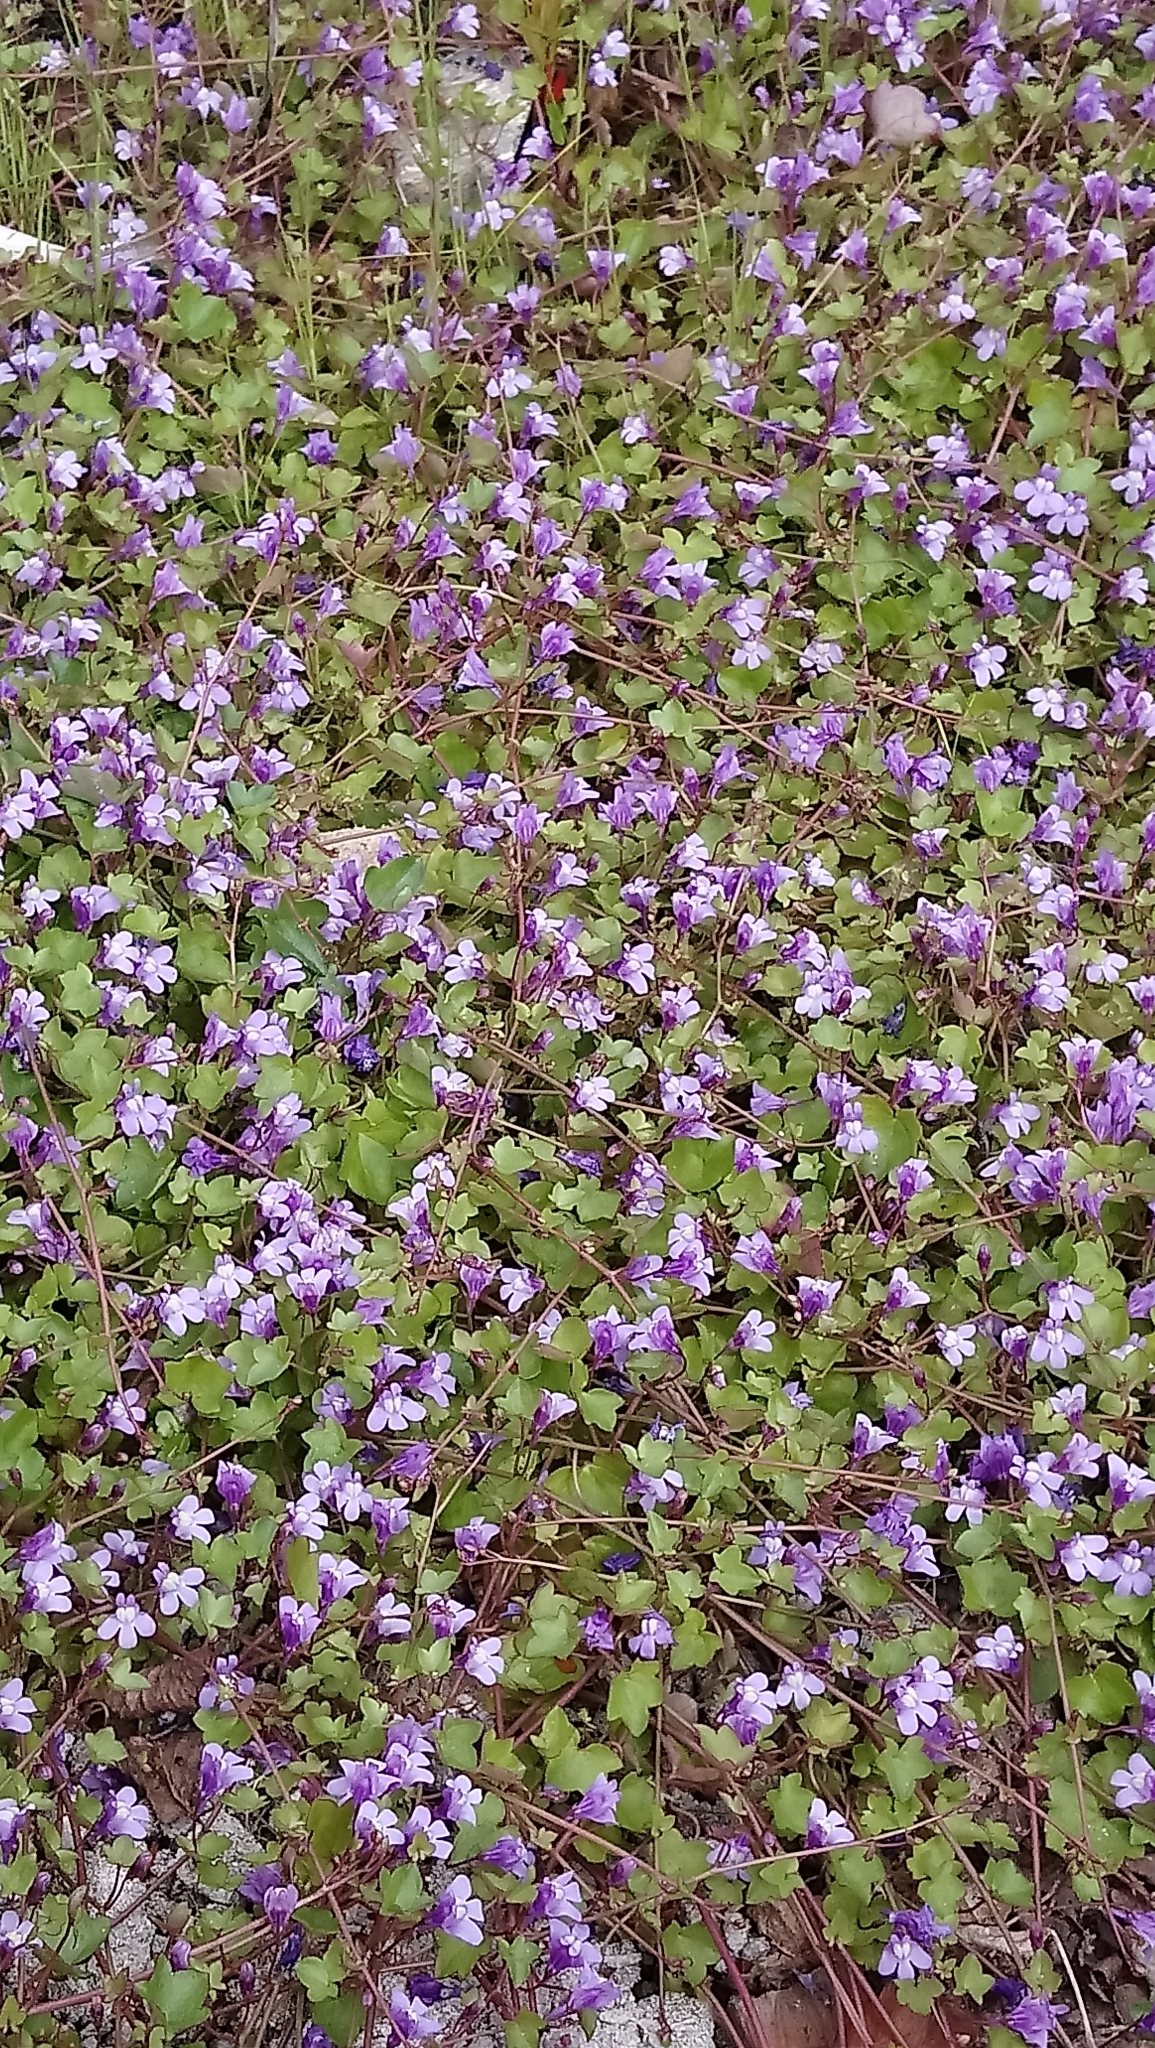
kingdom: Plantae
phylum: Tracheophyta
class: Magnoliopsida
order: Lamiales
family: Plantaginaceae
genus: Cymbalaria
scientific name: Cymbalaria muralis
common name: Ivy-leaved toadflax
